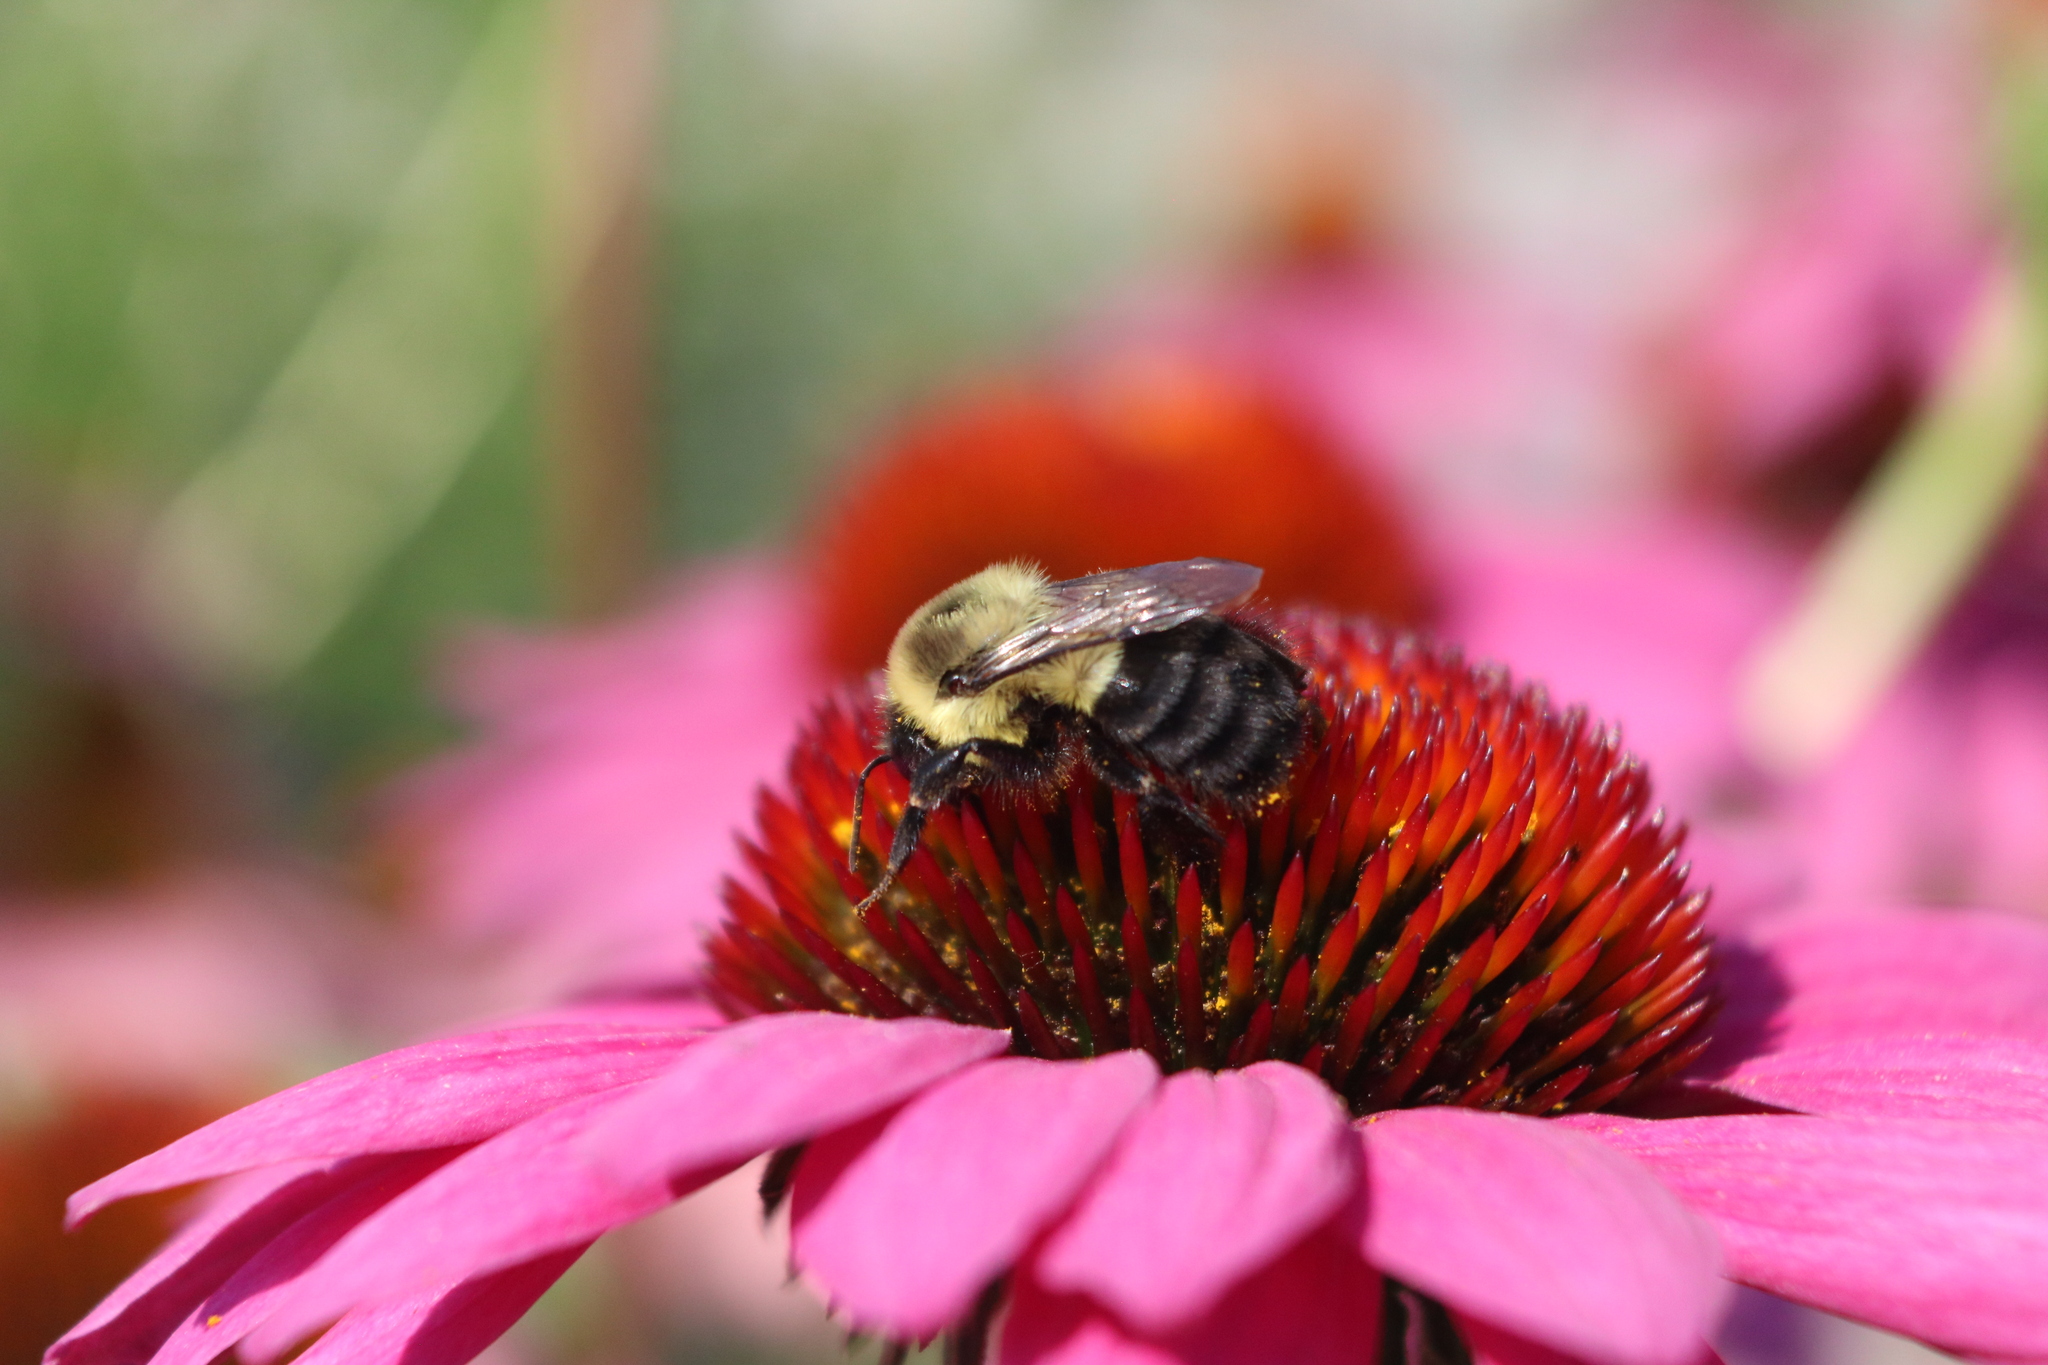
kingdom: Animalia
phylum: Arthropoda
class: Insecta
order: Hymenoptera
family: Apidae
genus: Bombus
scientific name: Bombus impatiens
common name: Common eastern bumble bee
